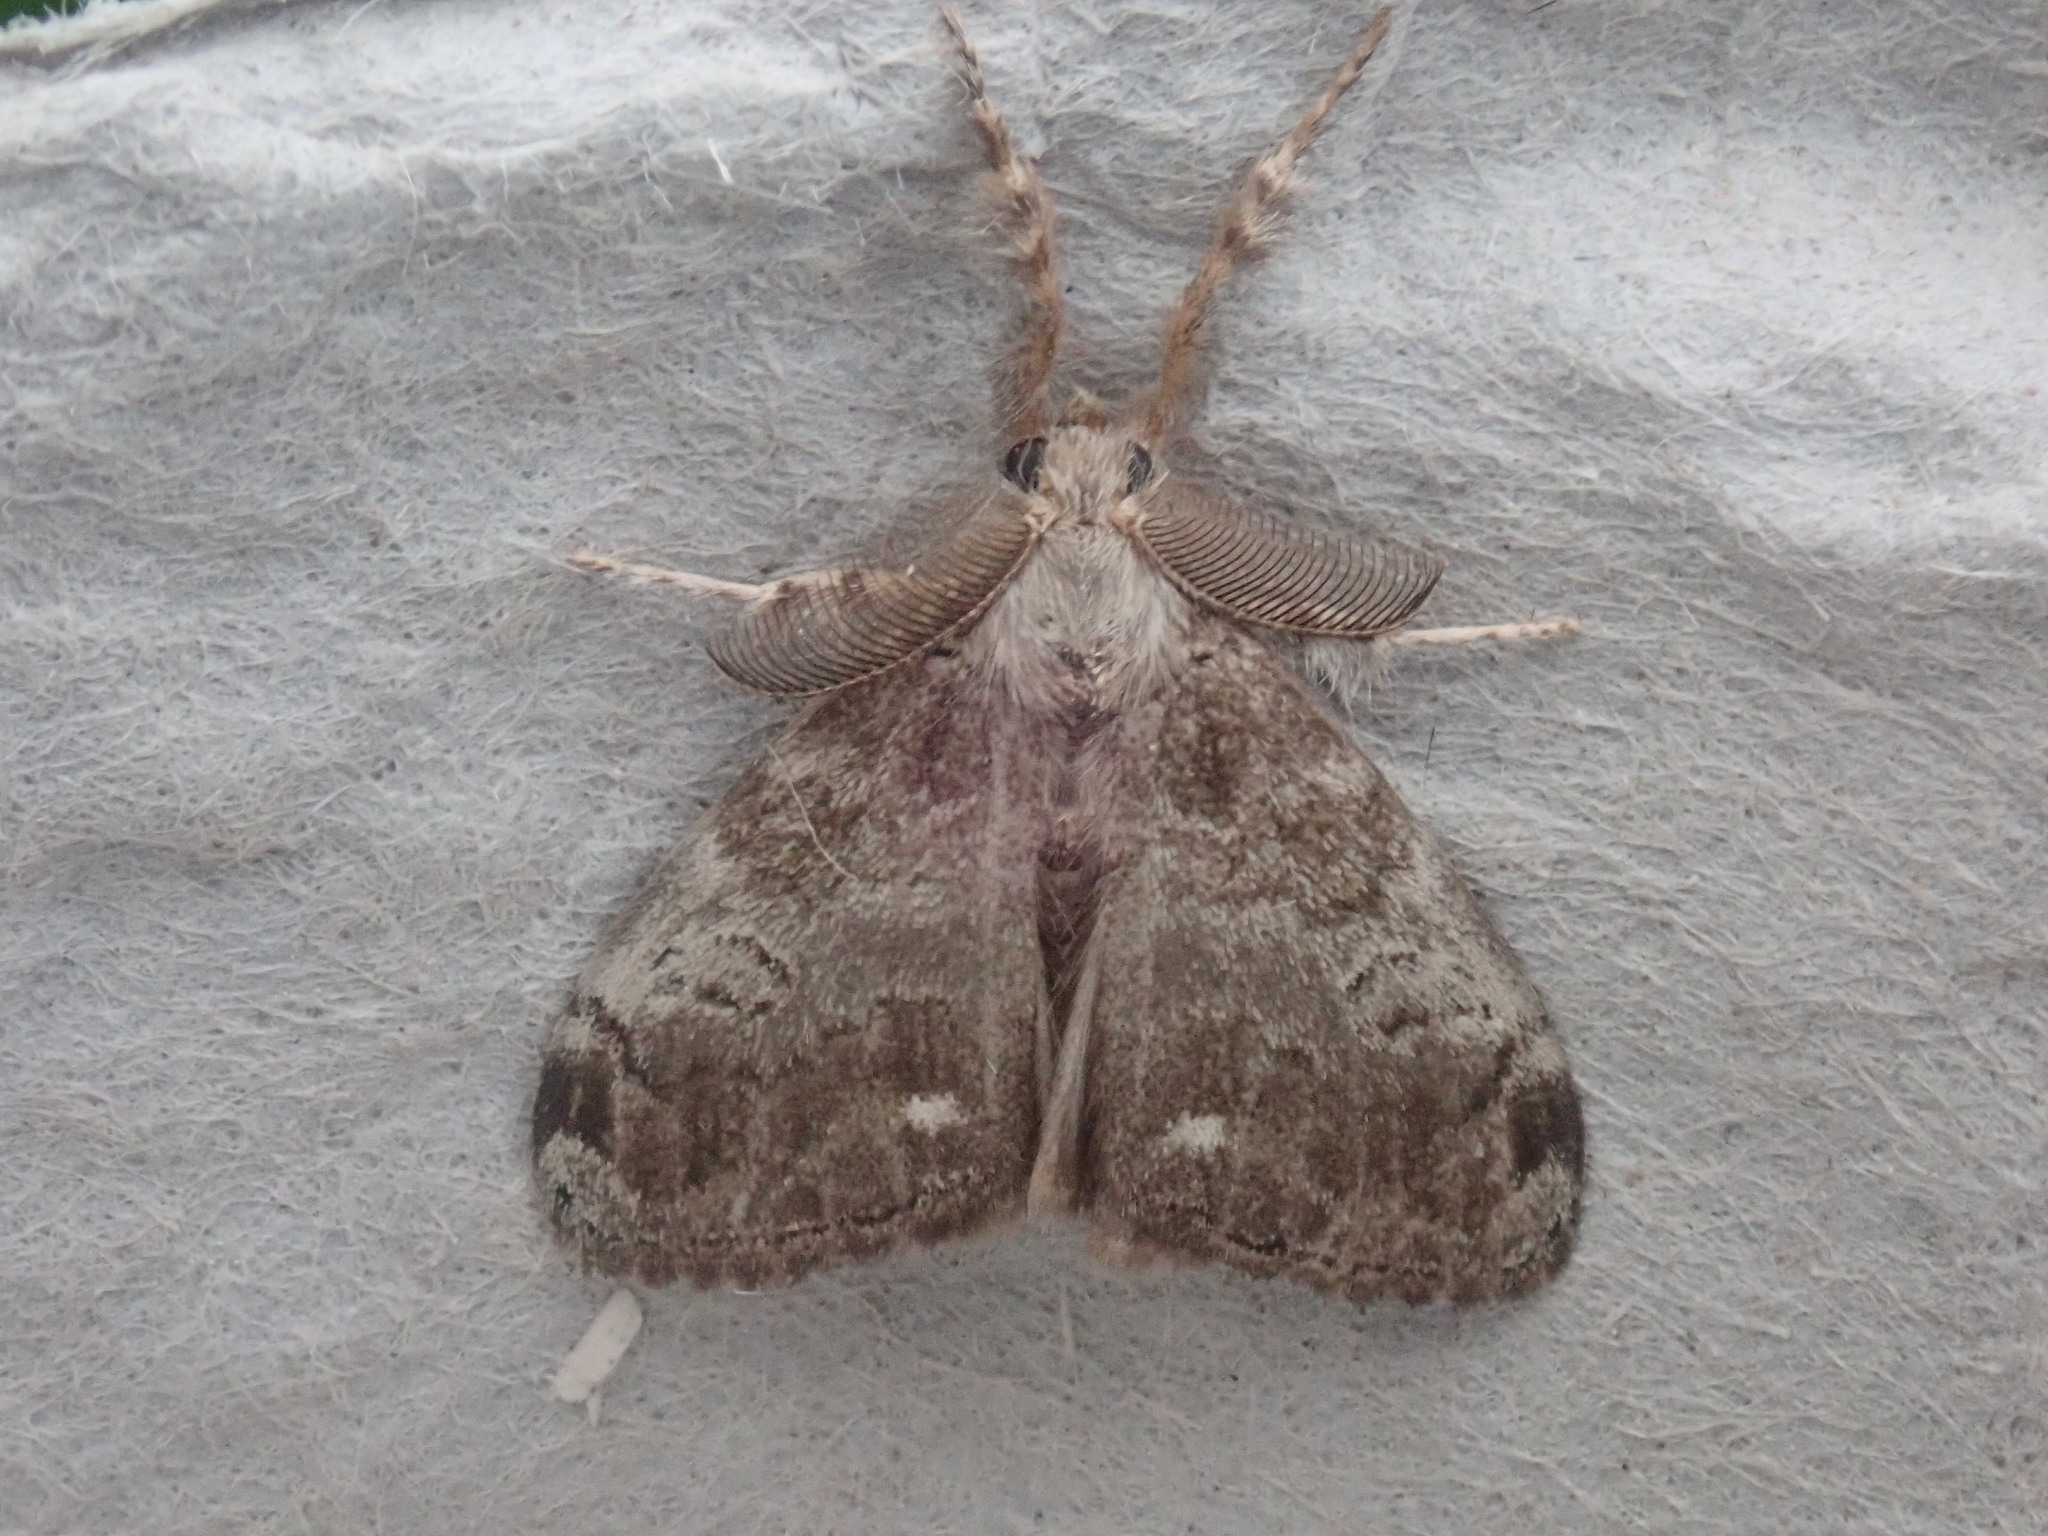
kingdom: Animalia
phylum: Arthropoda
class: Insecta
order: Lepidoptera
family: Erebidae
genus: Orgyia
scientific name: Orgyia leucostigma
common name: White-marked tussock moth
